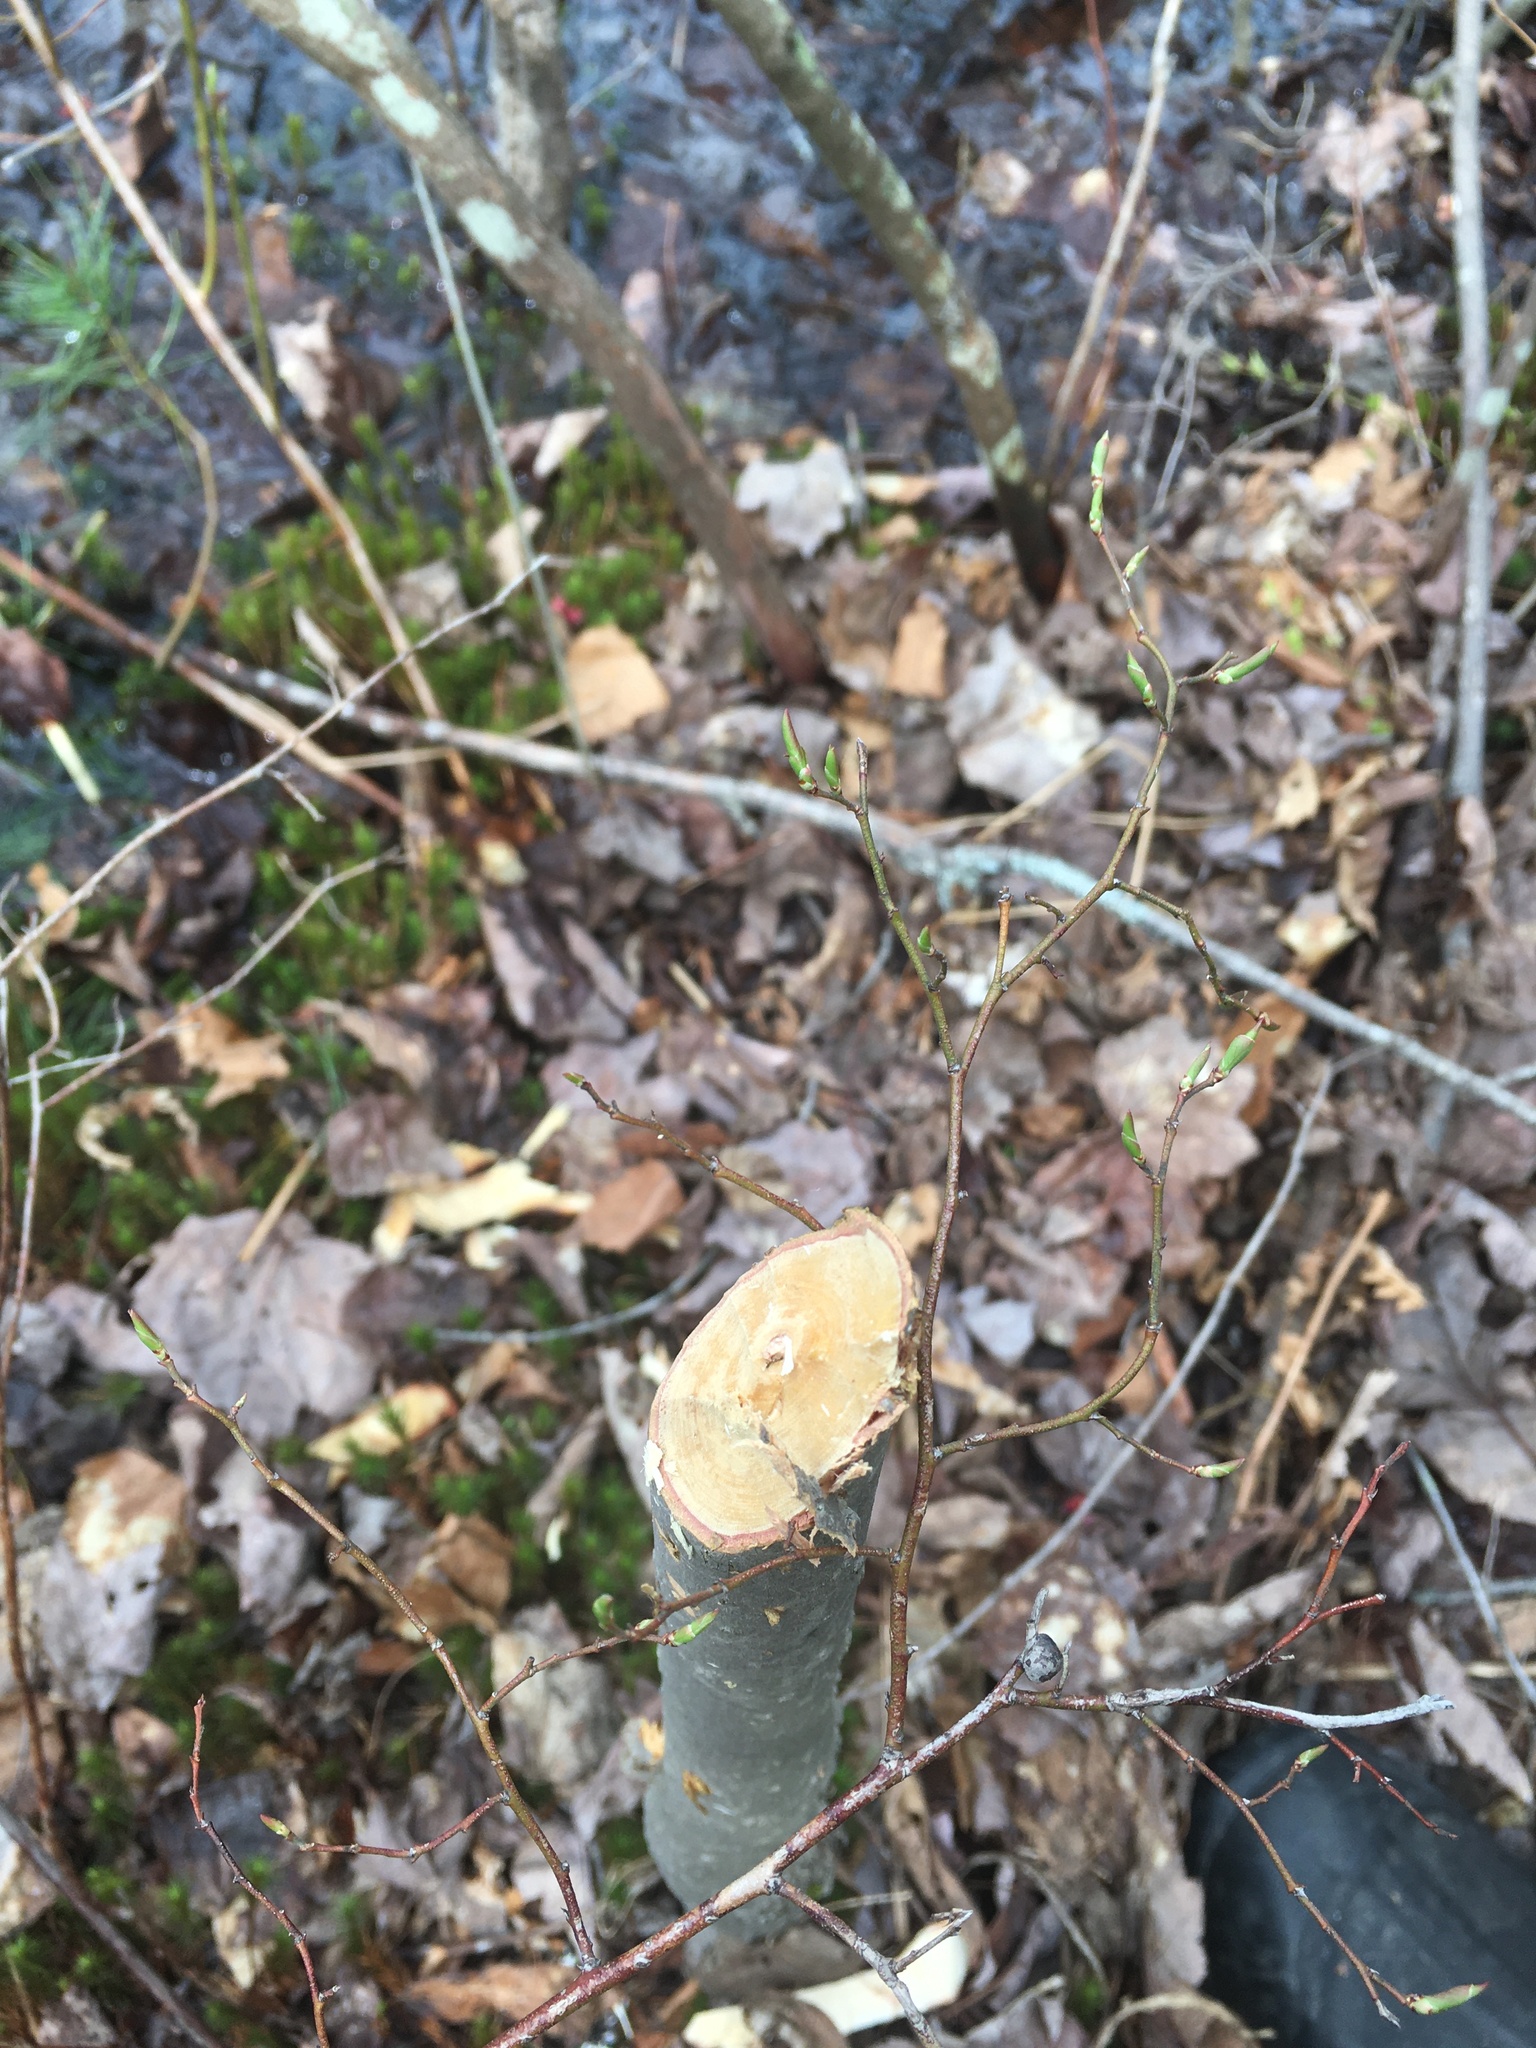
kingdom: Animalia
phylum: Chordata
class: Mammalia
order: Rodentia
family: Castoridae
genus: Castor
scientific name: Castor canadensis
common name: American beaver
